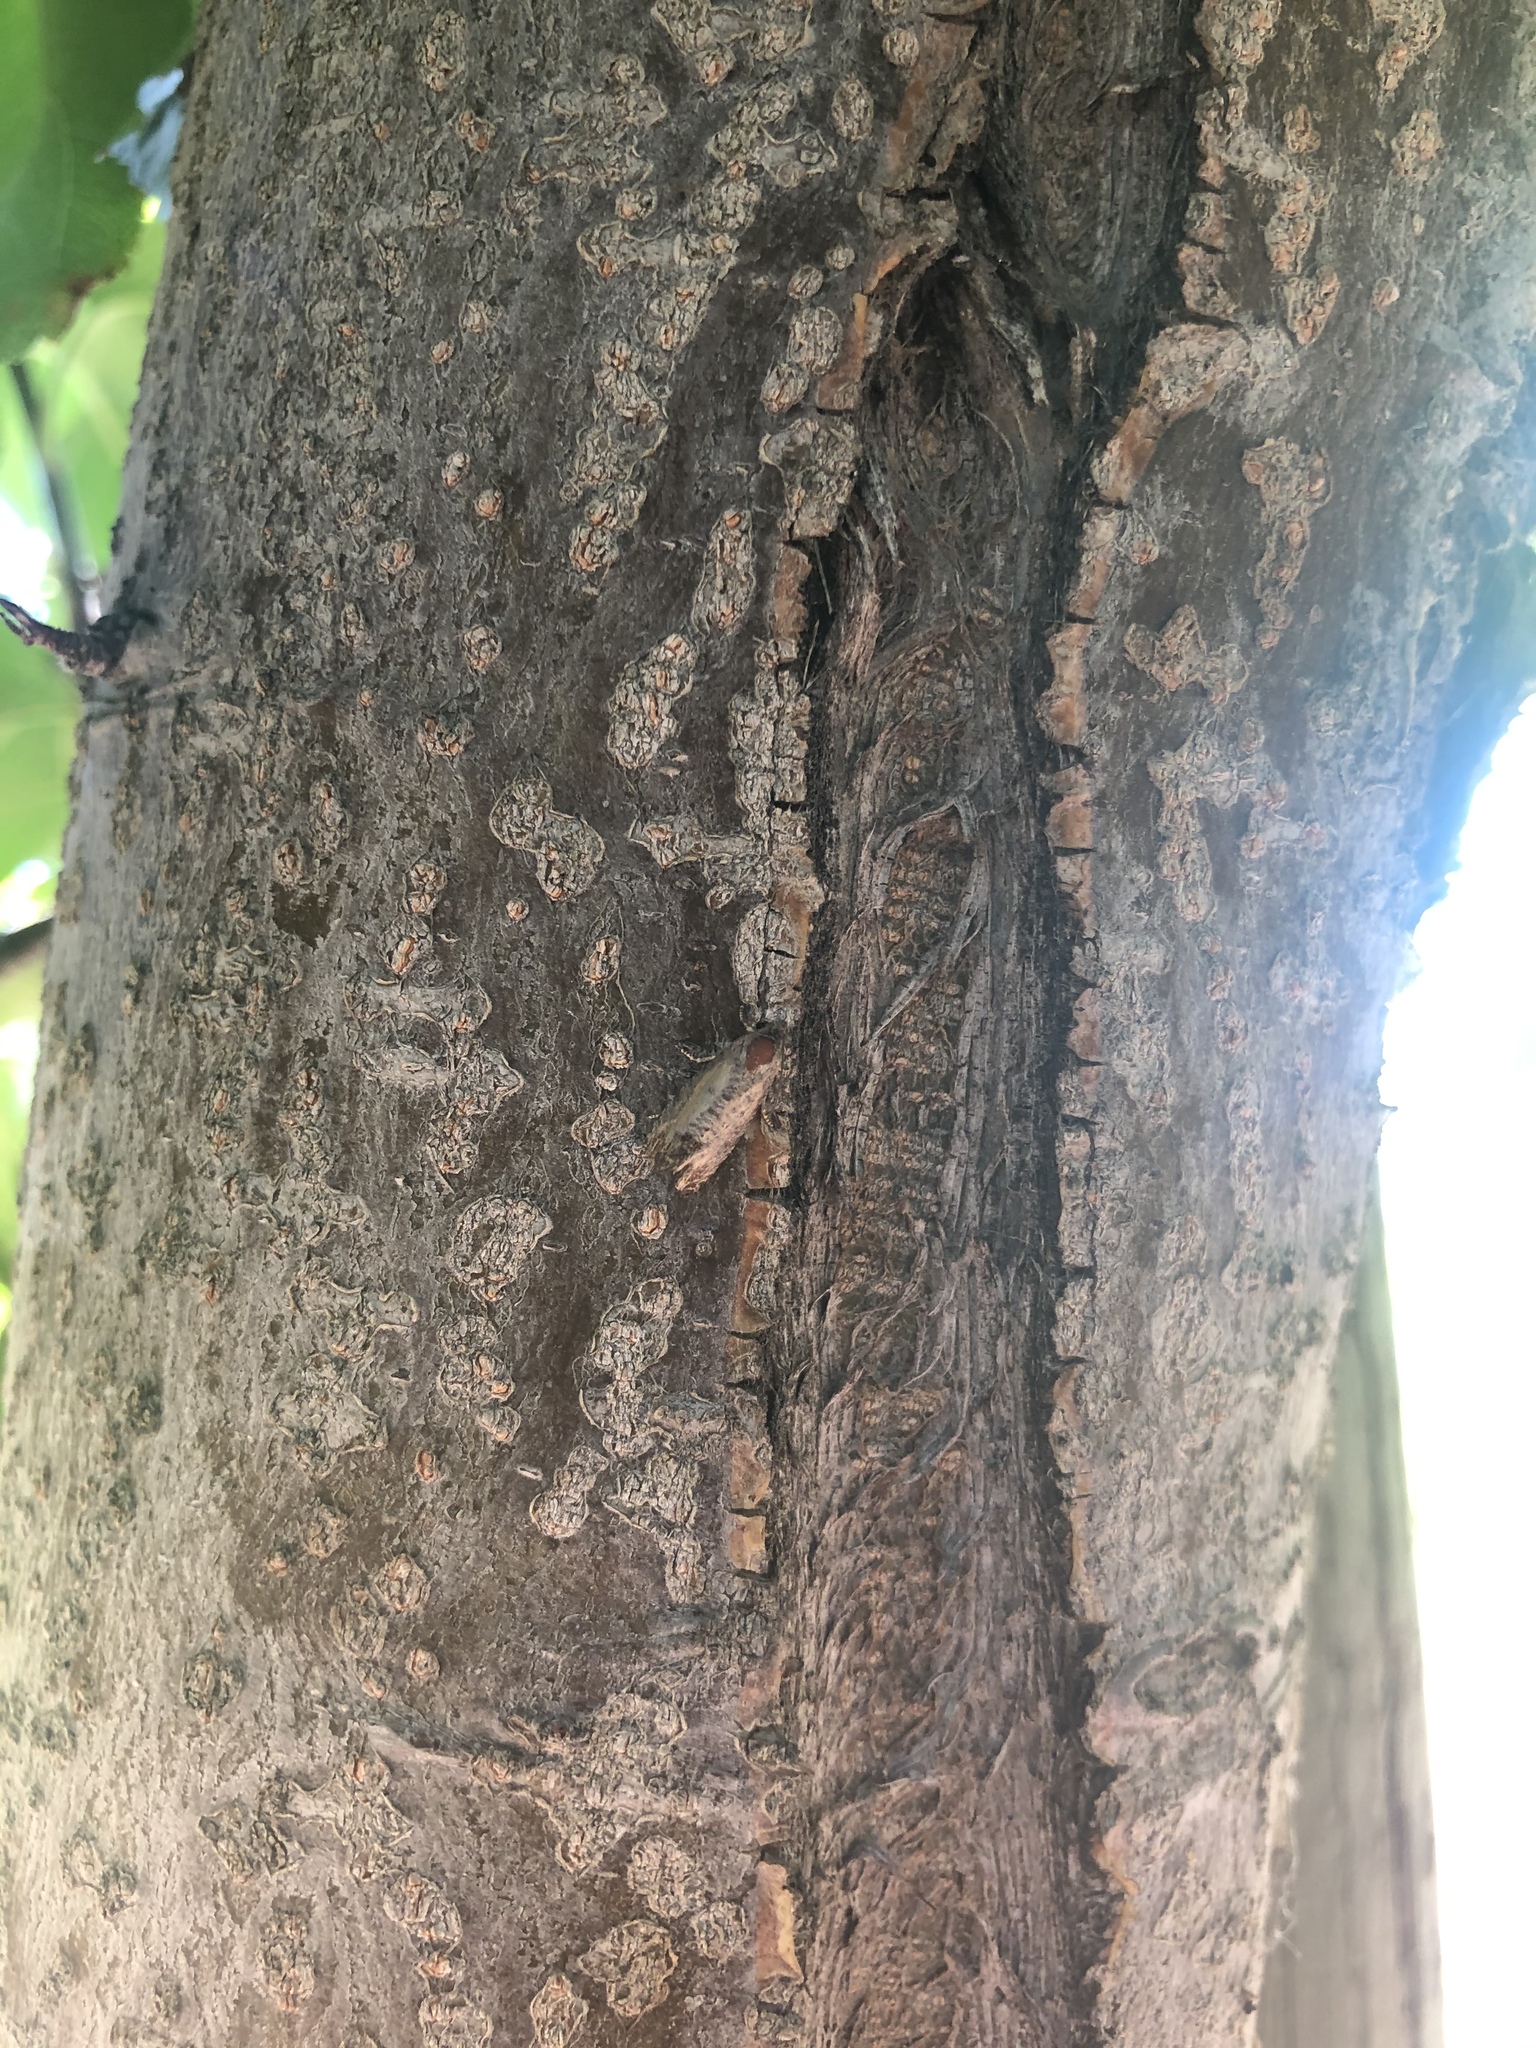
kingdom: Animalia
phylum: Arthropoda
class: Insecta
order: Lepidoptera
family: Tortricidae
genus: Cydia
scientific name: Cydia pomonella
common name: Codling moth
